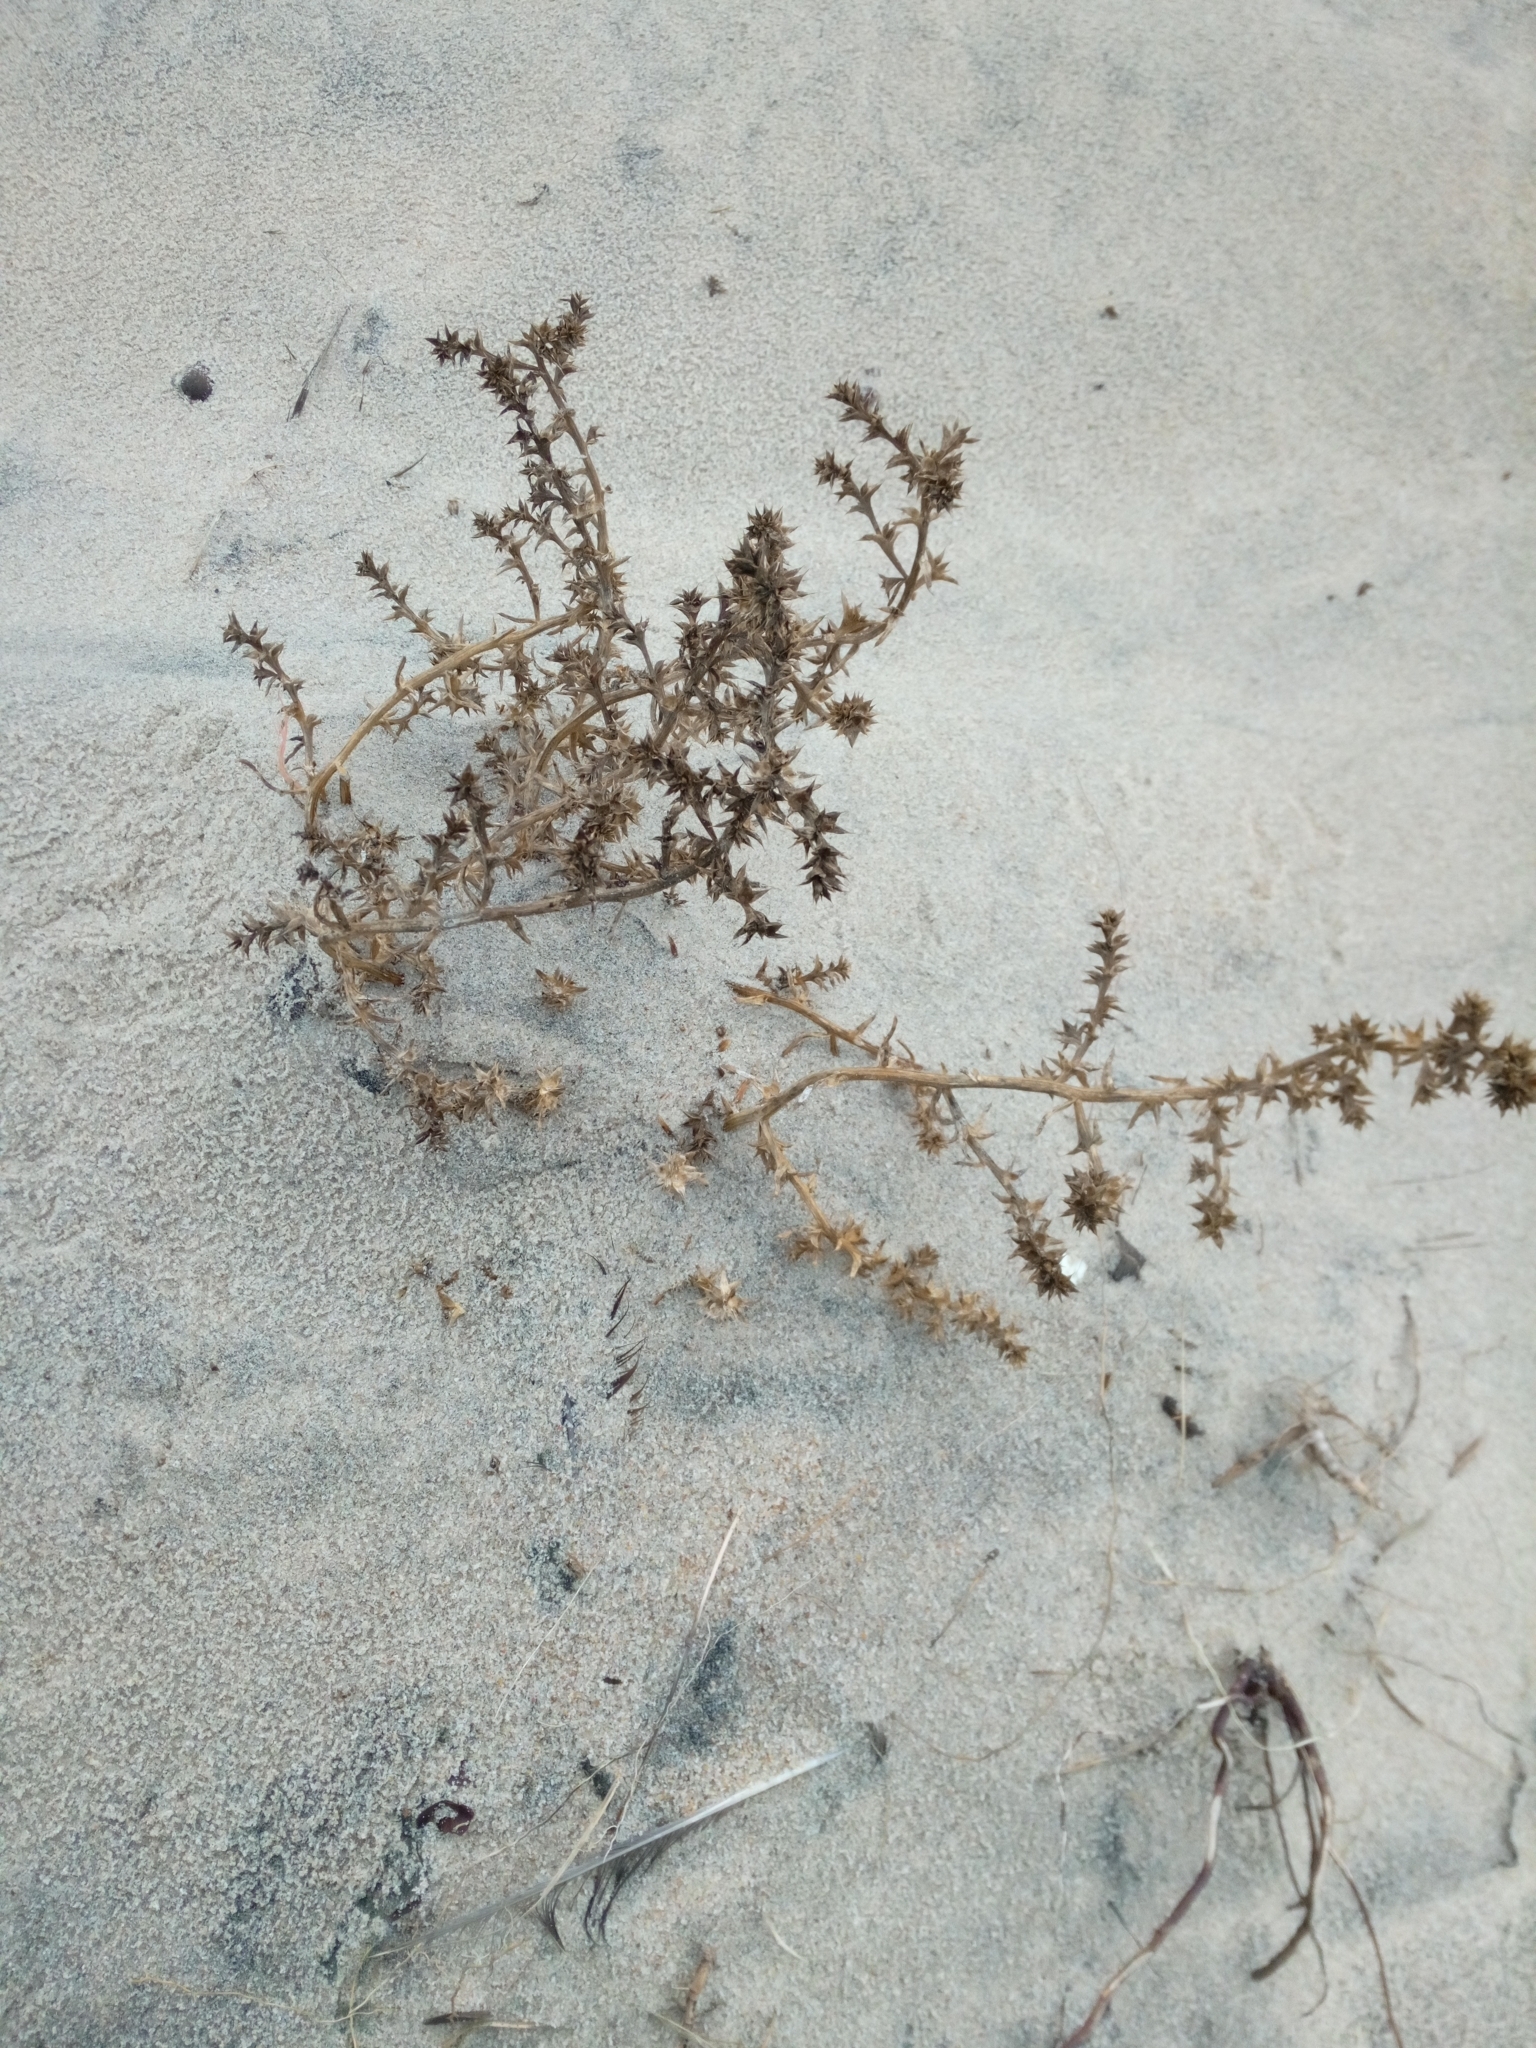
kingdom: Plantae
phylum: Tracheophyta
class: Magnoliopsida
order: Caryophyllales
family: Amaranthaceae
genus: Salsola
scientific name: Salsola kali
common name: Saltwort
